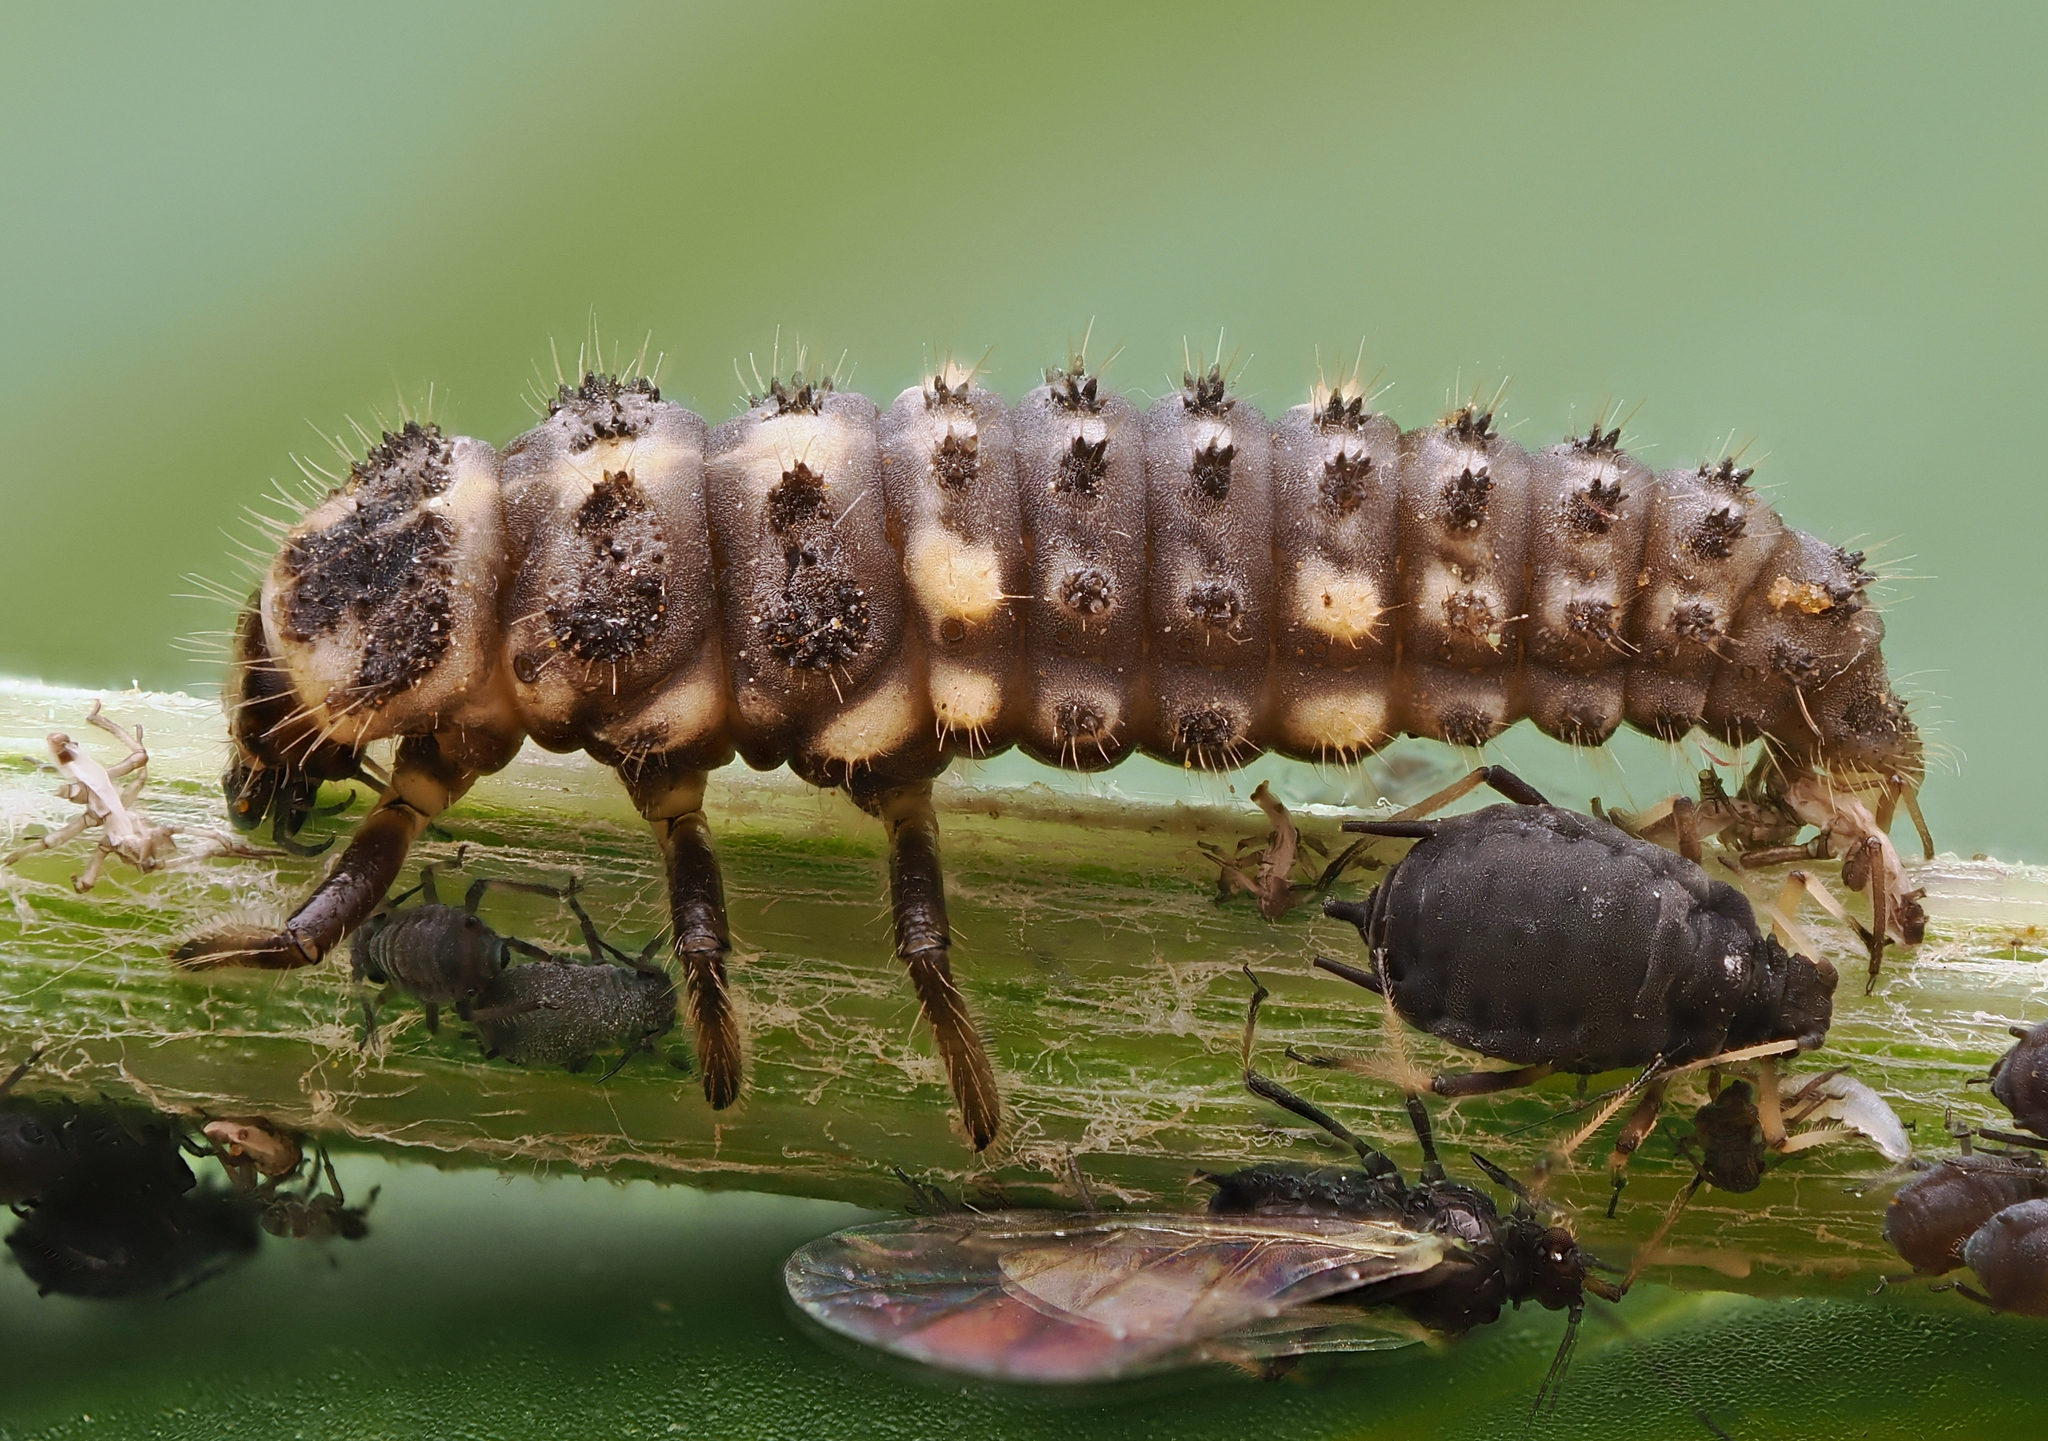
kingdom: Animalia
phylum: Arthropoda
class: Insecta
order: Coleoptera
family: Coccinellidae
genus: Ceratomegilla
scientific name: Ceratomegilla notata
